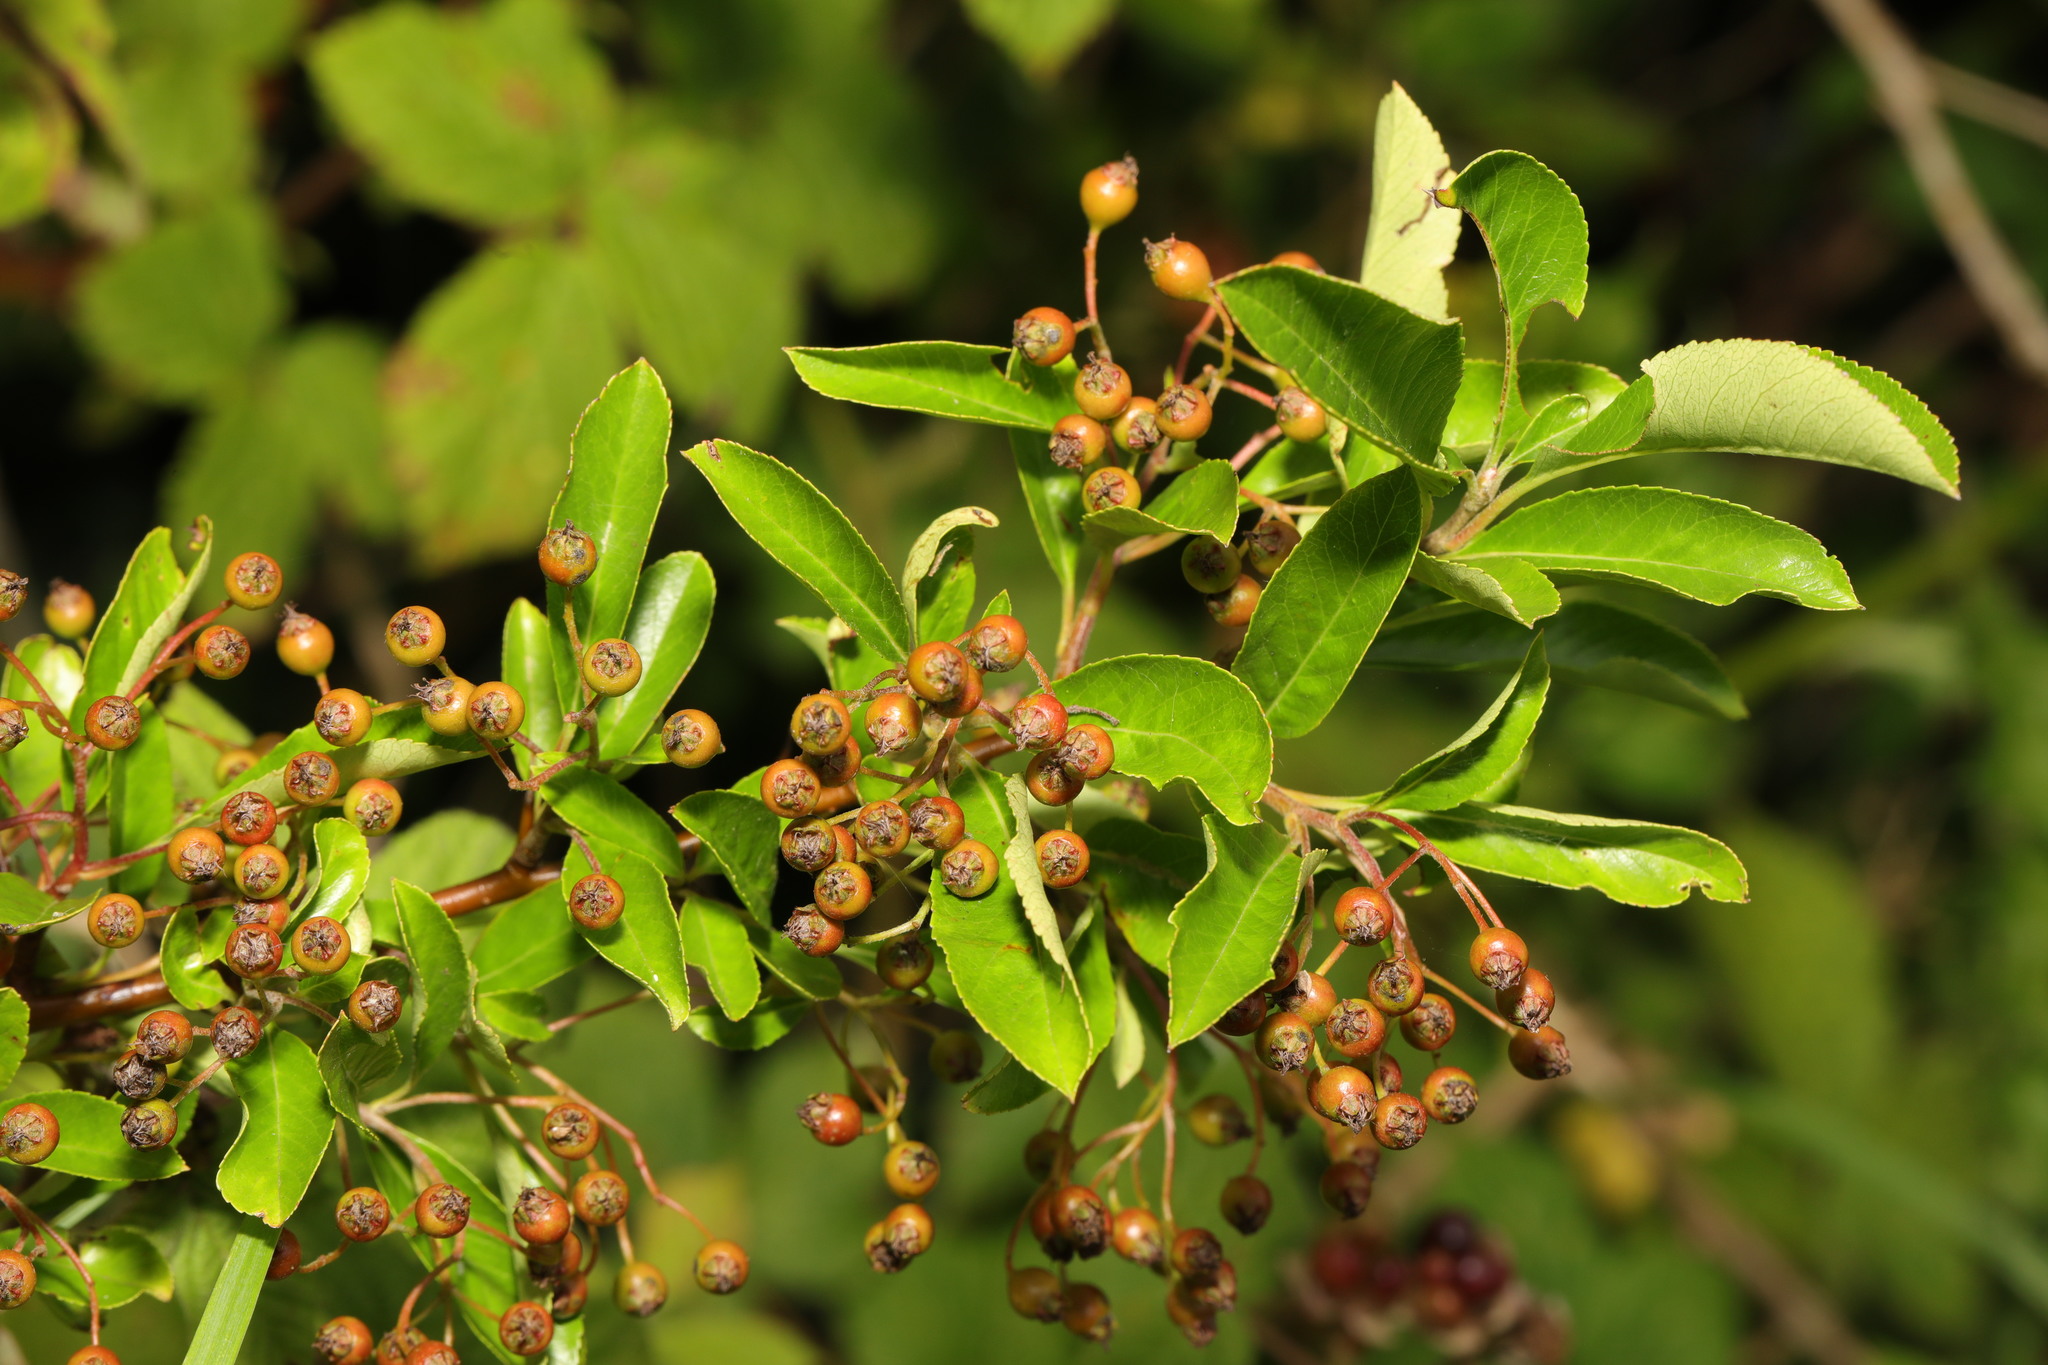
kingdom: Plantae
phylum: Tracheophyta
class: Magnoliopsida
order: Rosales
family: Rosaceae
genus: Pyracantha
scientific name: Pyracantha coccinea
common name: Firethorn
